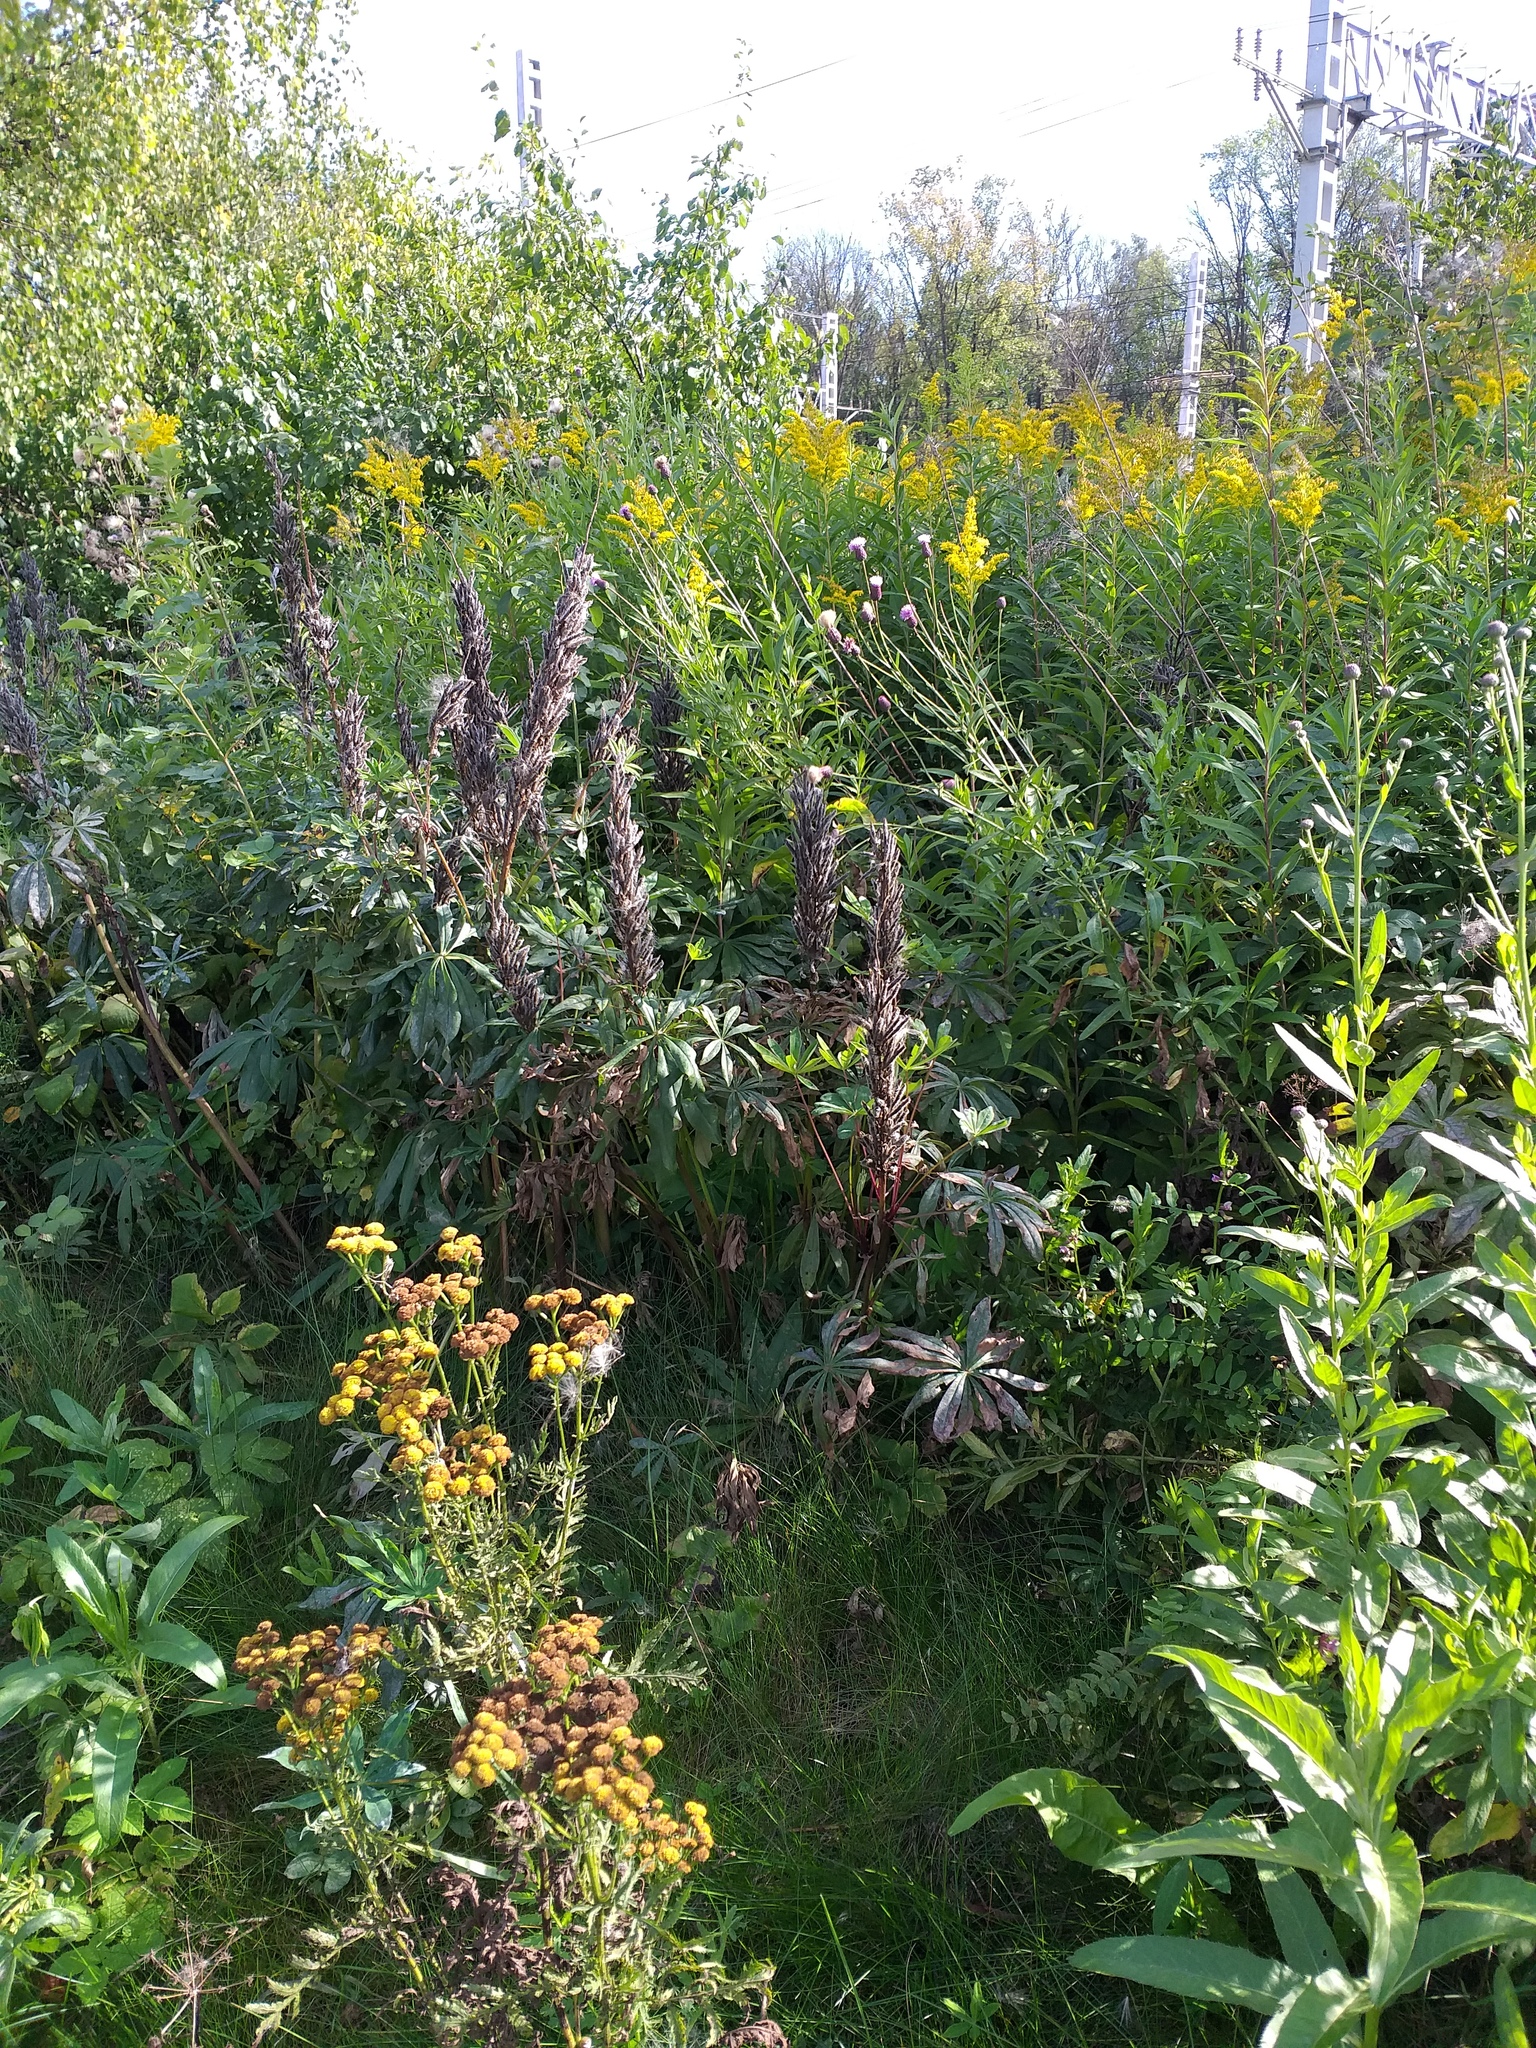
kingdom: Plantae
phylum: Tracheophyta
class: Magnoliopsida
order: Fabales
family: Fabaceae
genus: Lupinus
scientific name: Lupinus polyphyllus
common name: Garden lupin
